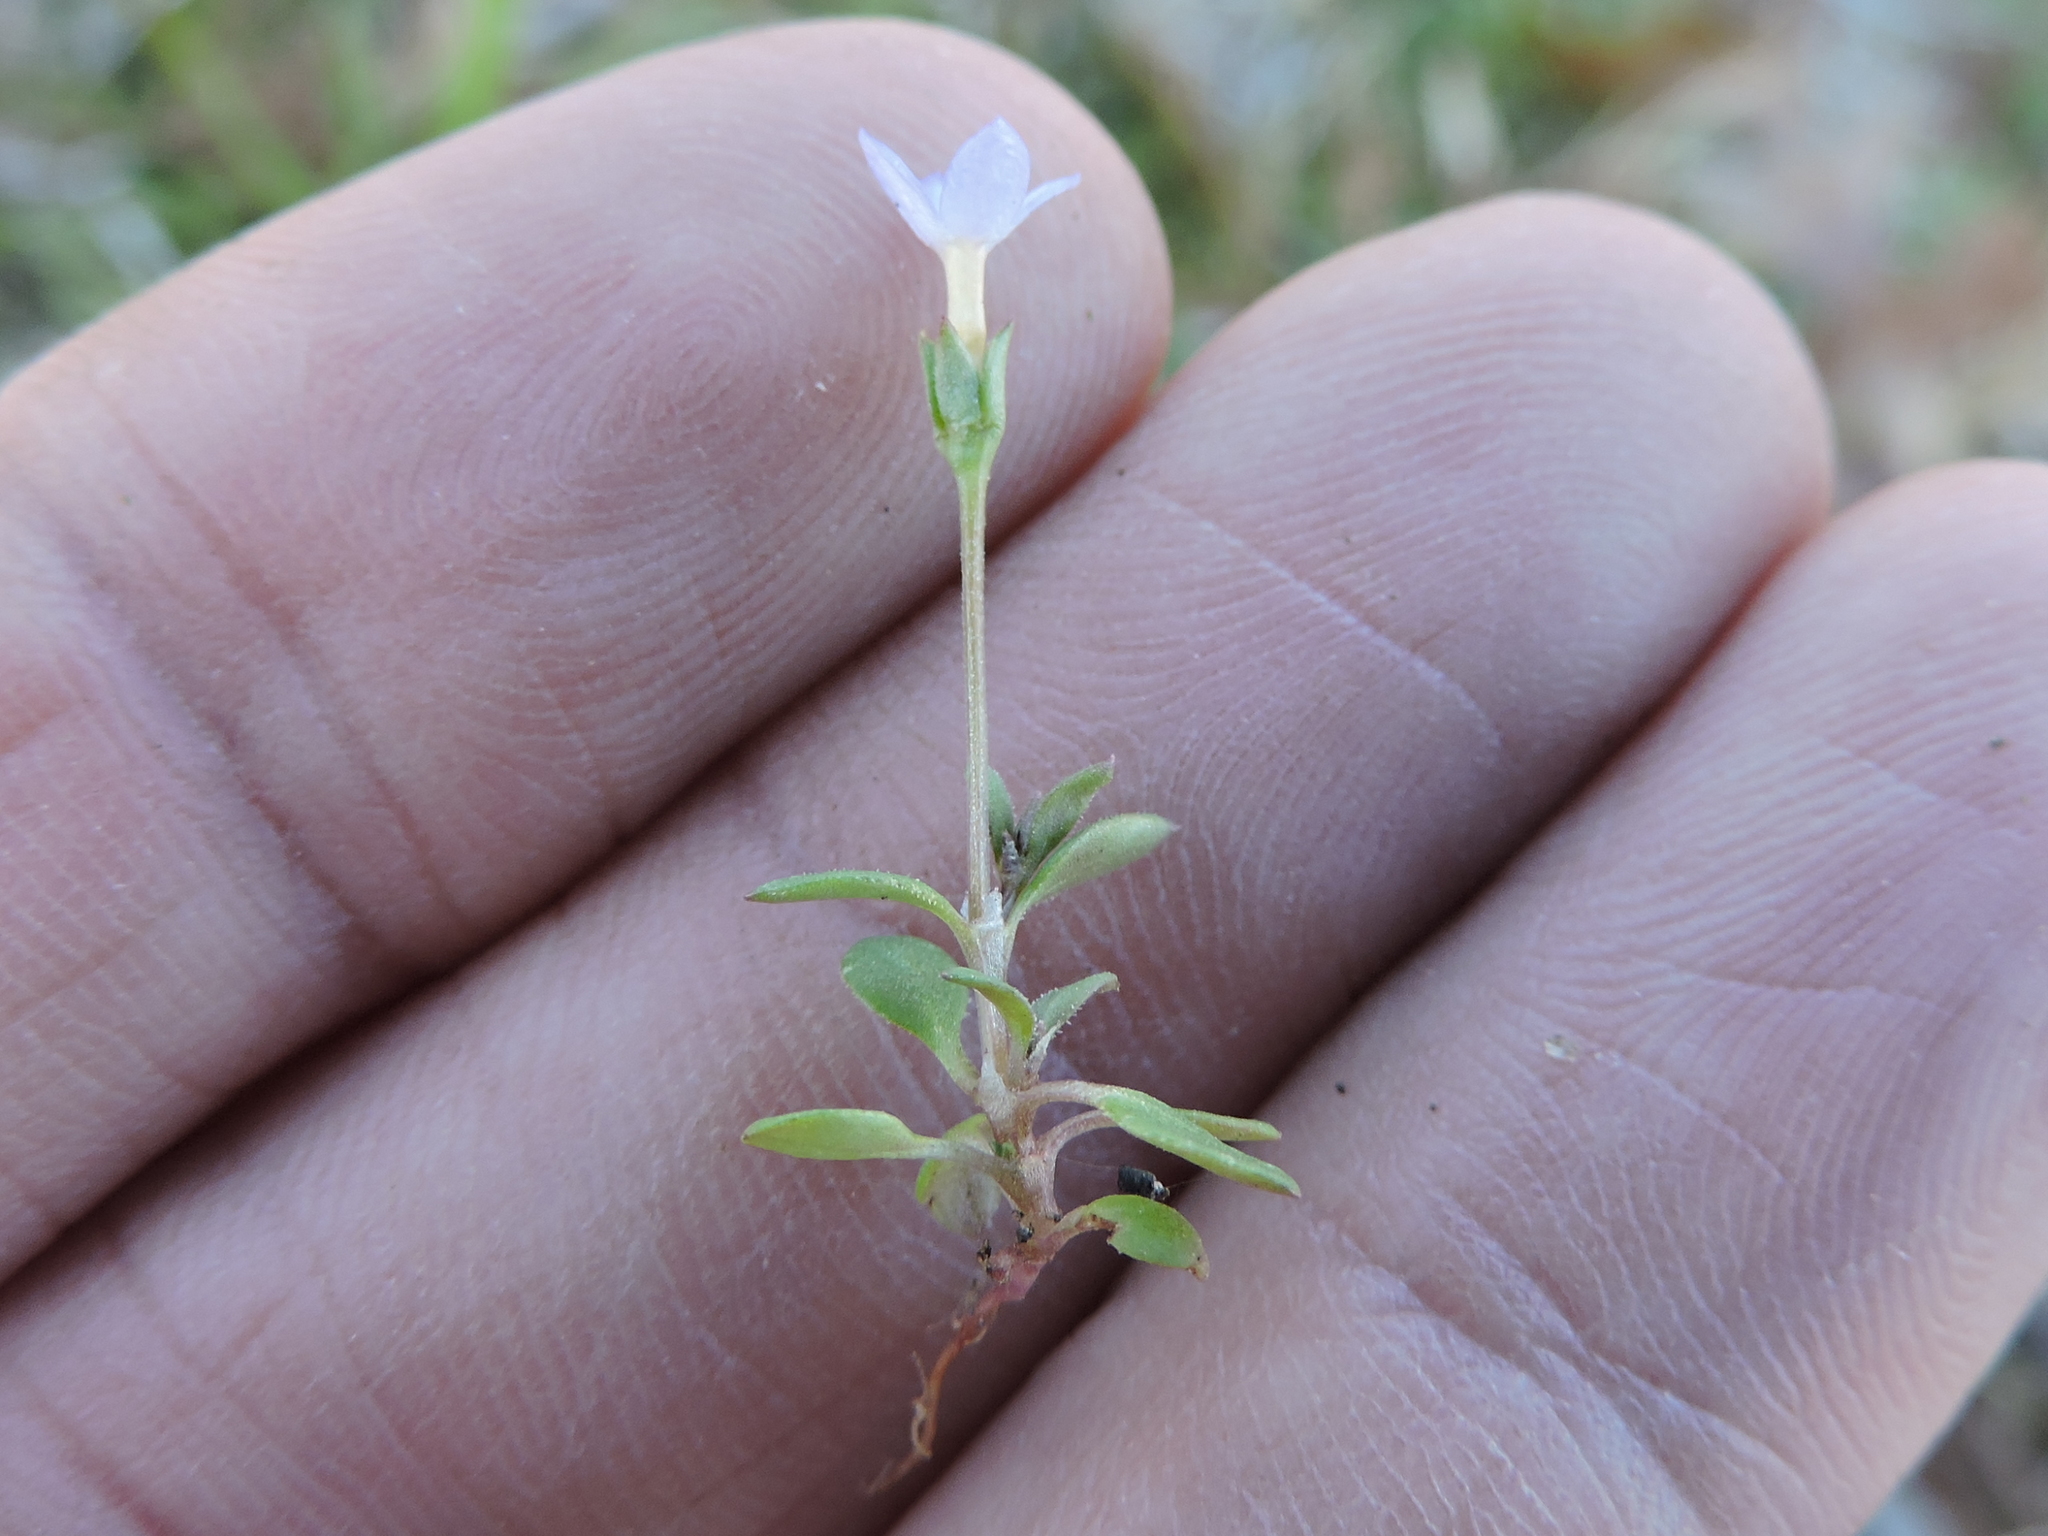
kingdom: Plantae
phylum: Tracheophyta
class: Magnoliopsida
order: Gentianales
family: Rubiaceae
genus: Houstonia
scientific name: Houstonia pusilla
